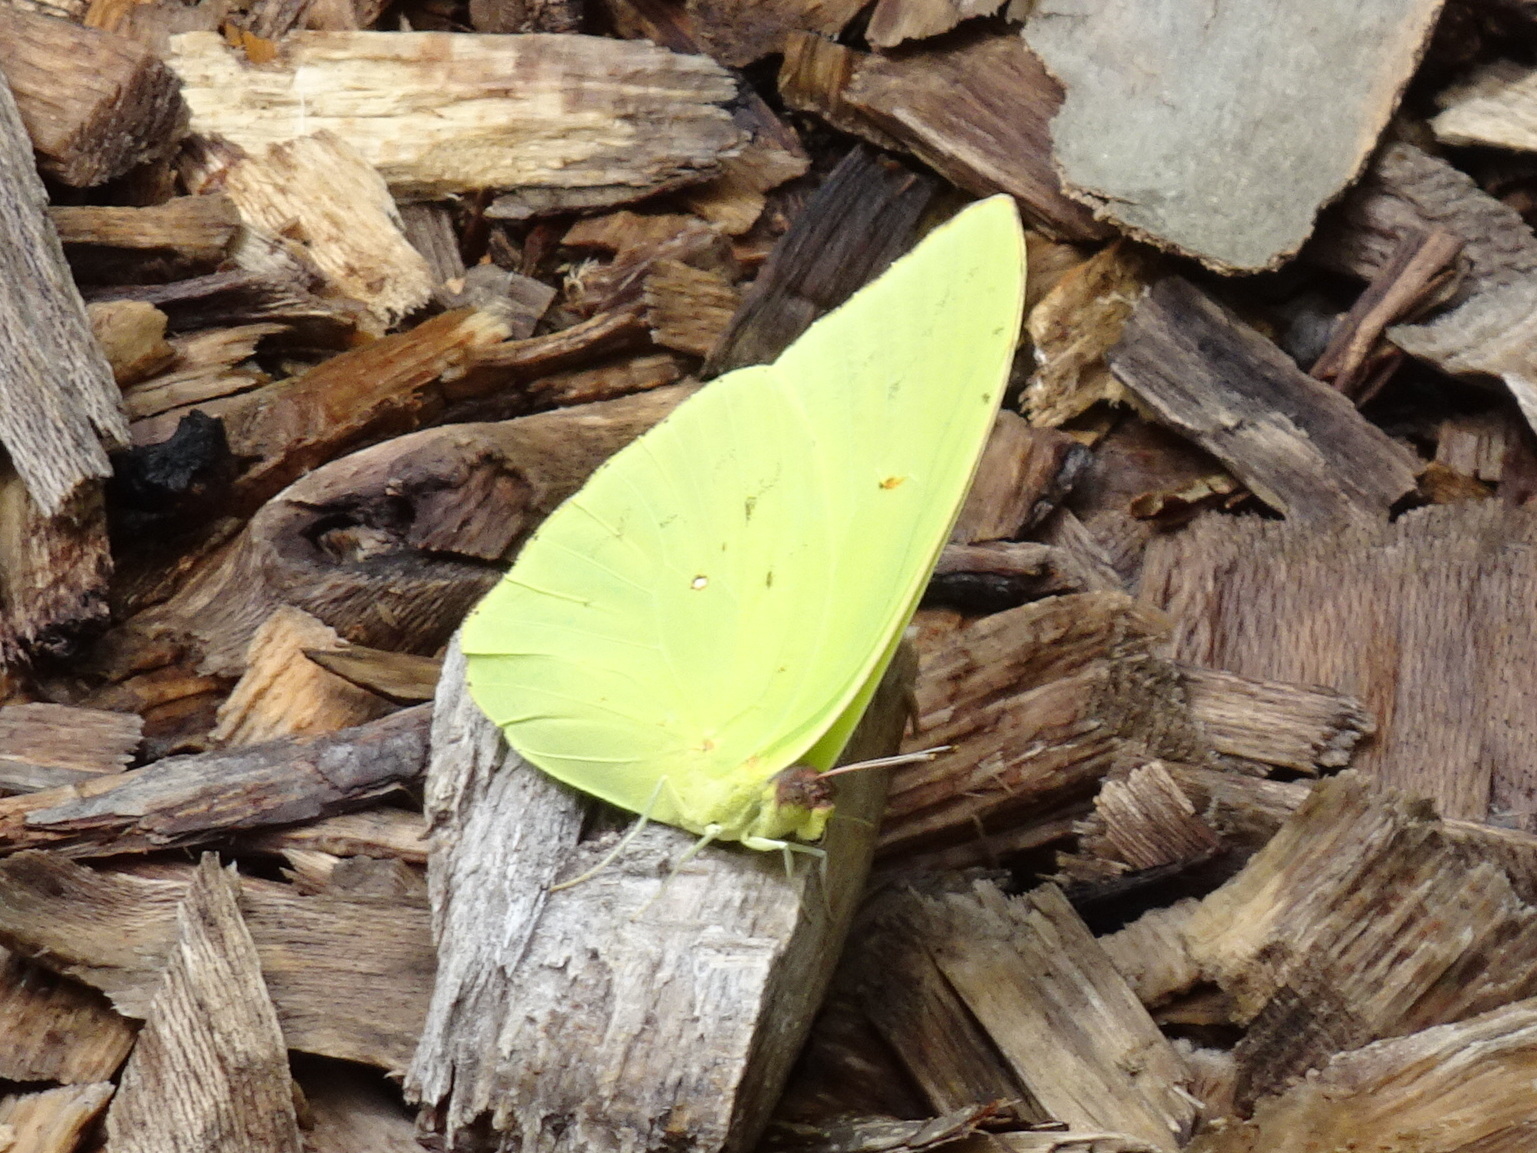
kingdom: Animalia
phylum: Arthropoda
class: Insecta
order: Lepidoptera
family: Pieridae
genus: Phoebis
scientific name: Phoebis sennae
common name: Cloudless sulphur
